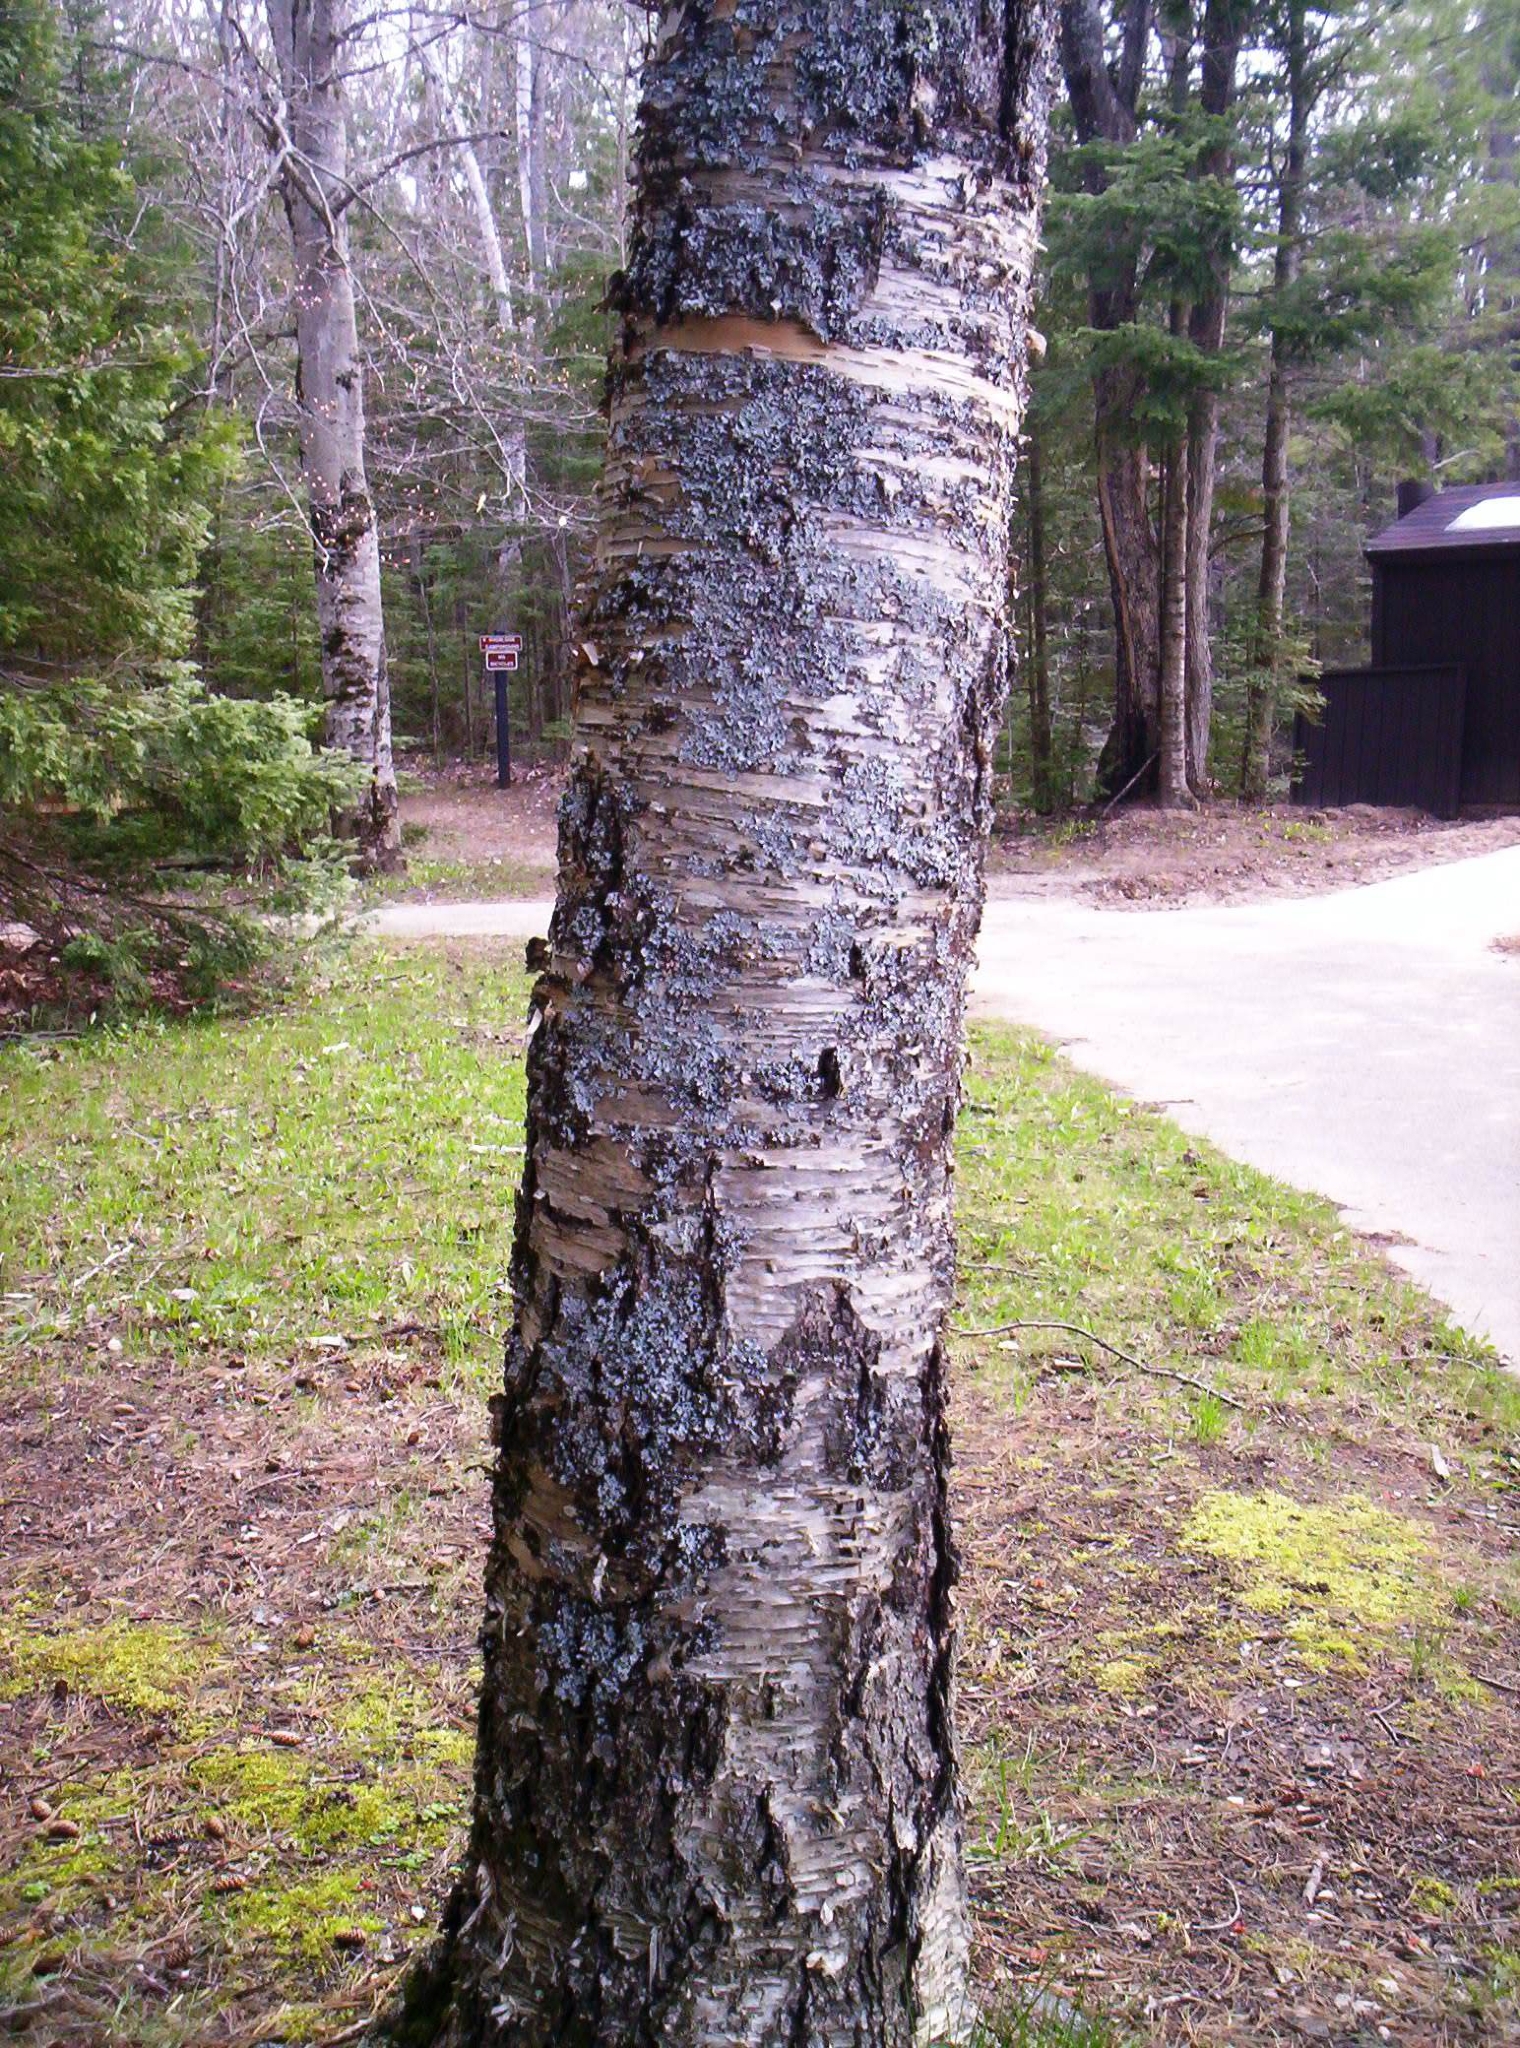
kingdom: Plantae
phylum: Tracheophyta
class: Magnoliopsida
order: Fagales
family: Betulaceae
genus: Betula
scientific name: Betula papyrifera
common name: Paper birch
